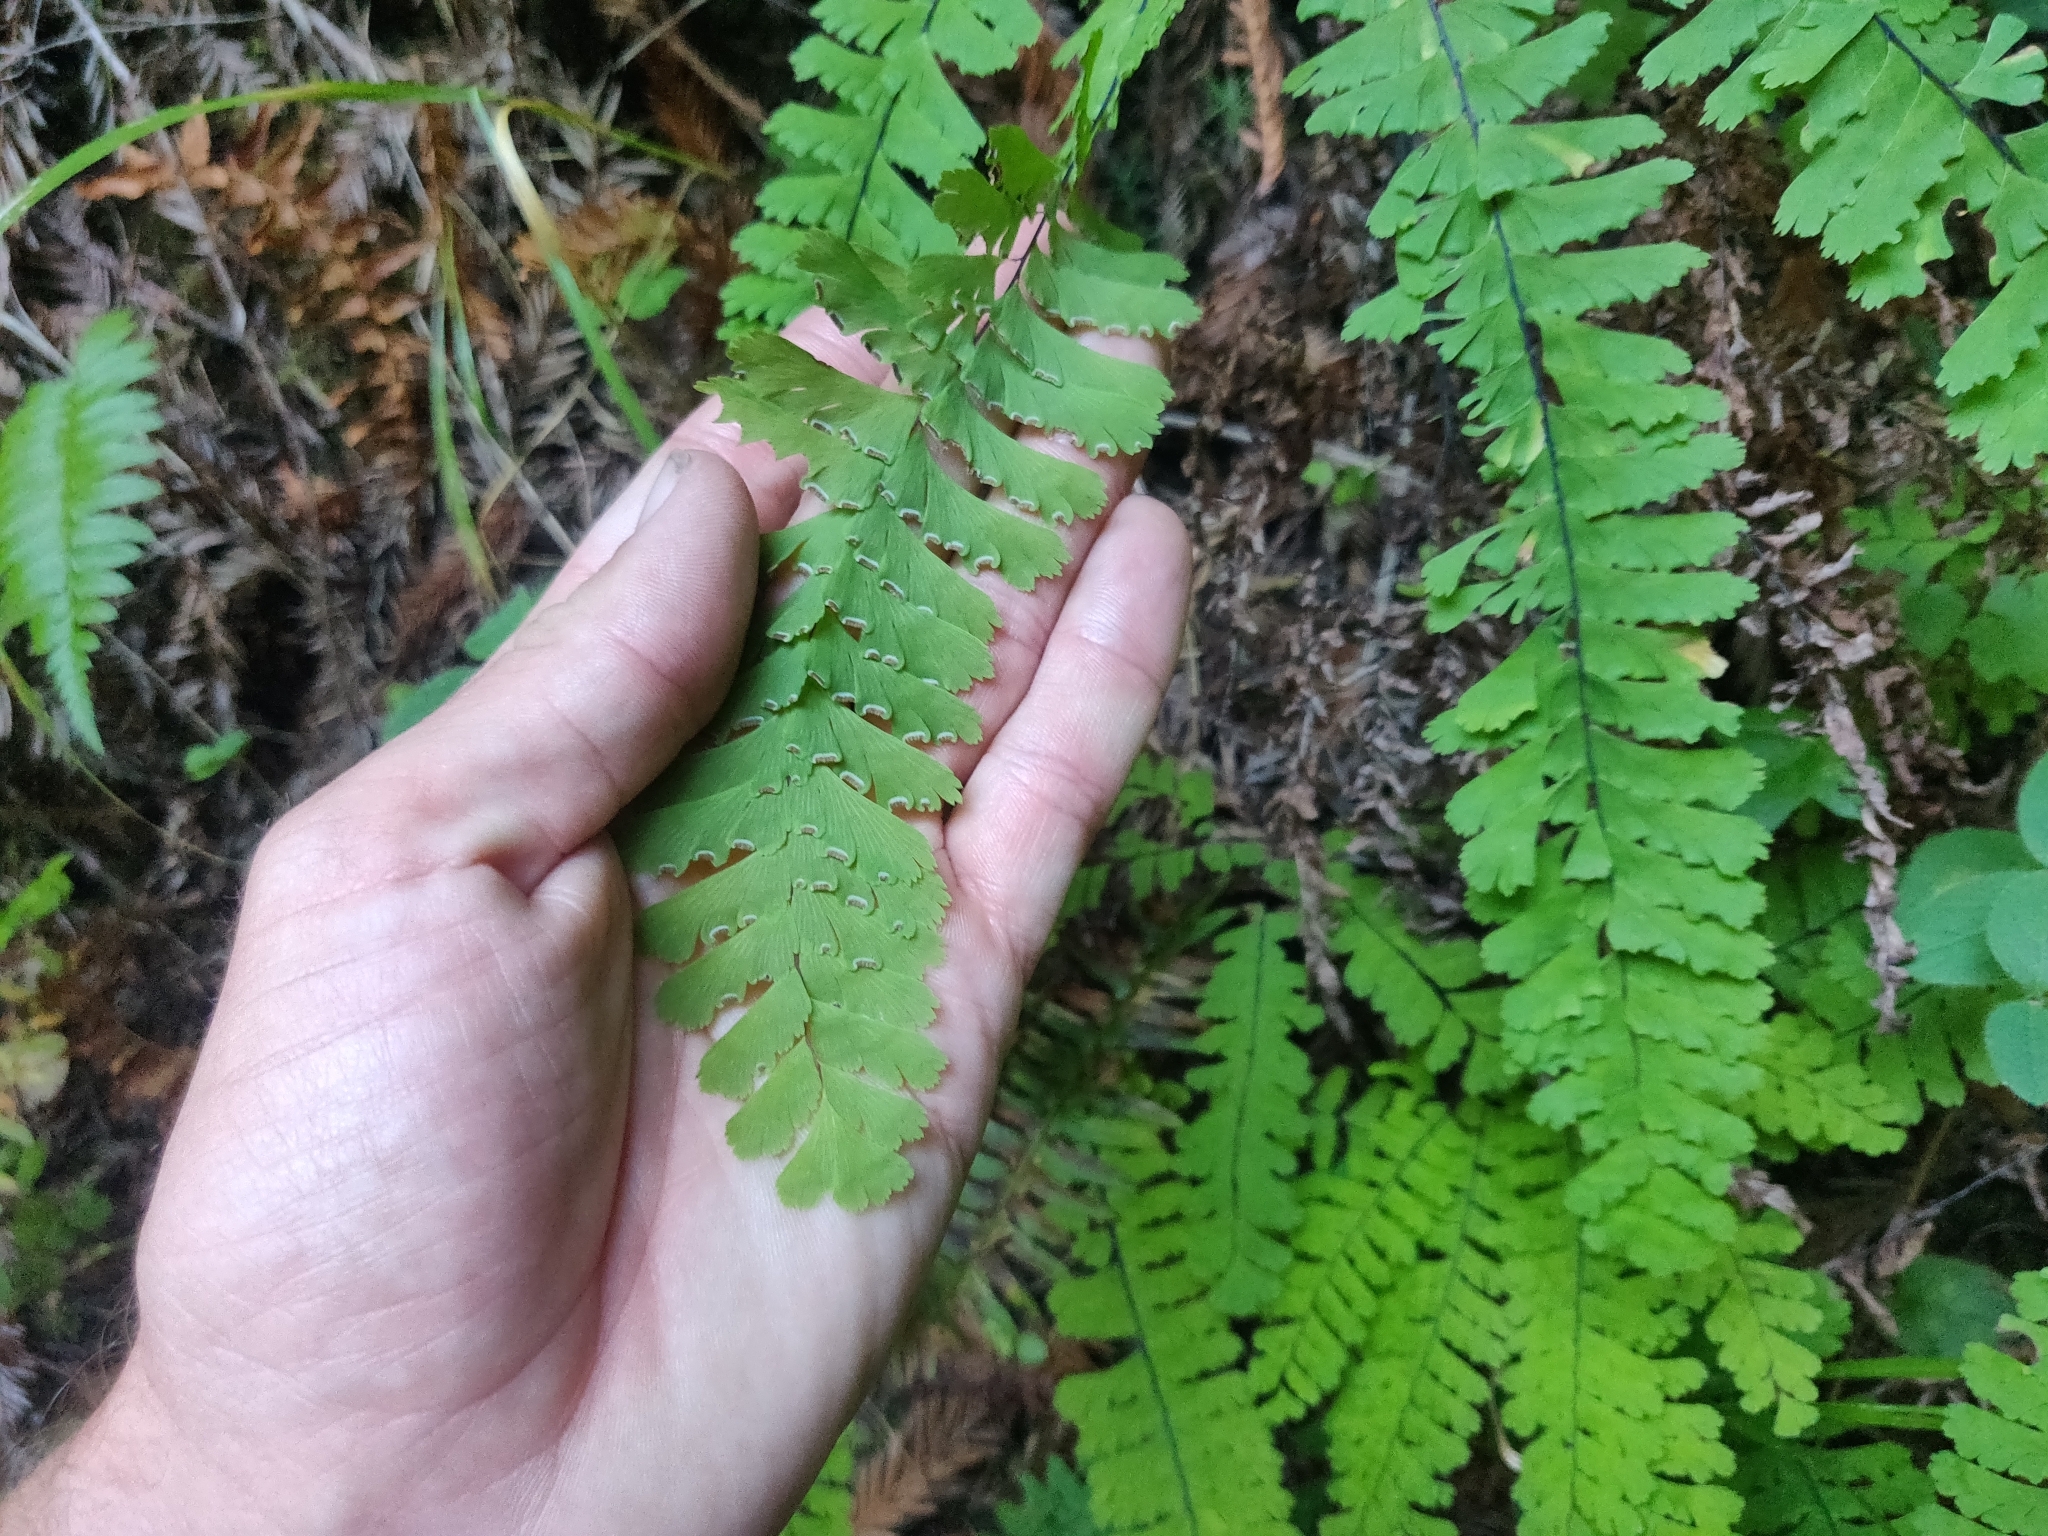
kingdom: Plantae
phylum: Tracheophyta
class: Polypodiopsida
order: Polypodiales
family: Pteridaceae
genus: Adiantum
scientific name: Adiantum aleuticum
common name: Aleutian maidenhair fern
